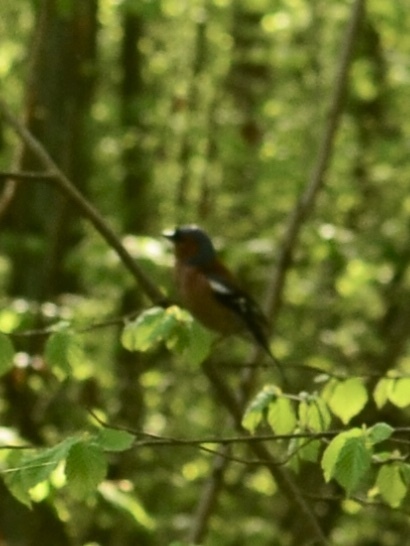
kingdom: Animalia
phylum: Chordata
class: Aves
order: Passeriformes
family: Fringillidae
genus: Fringilla
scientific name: Fringilla coelebs
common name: Common chaffinch
